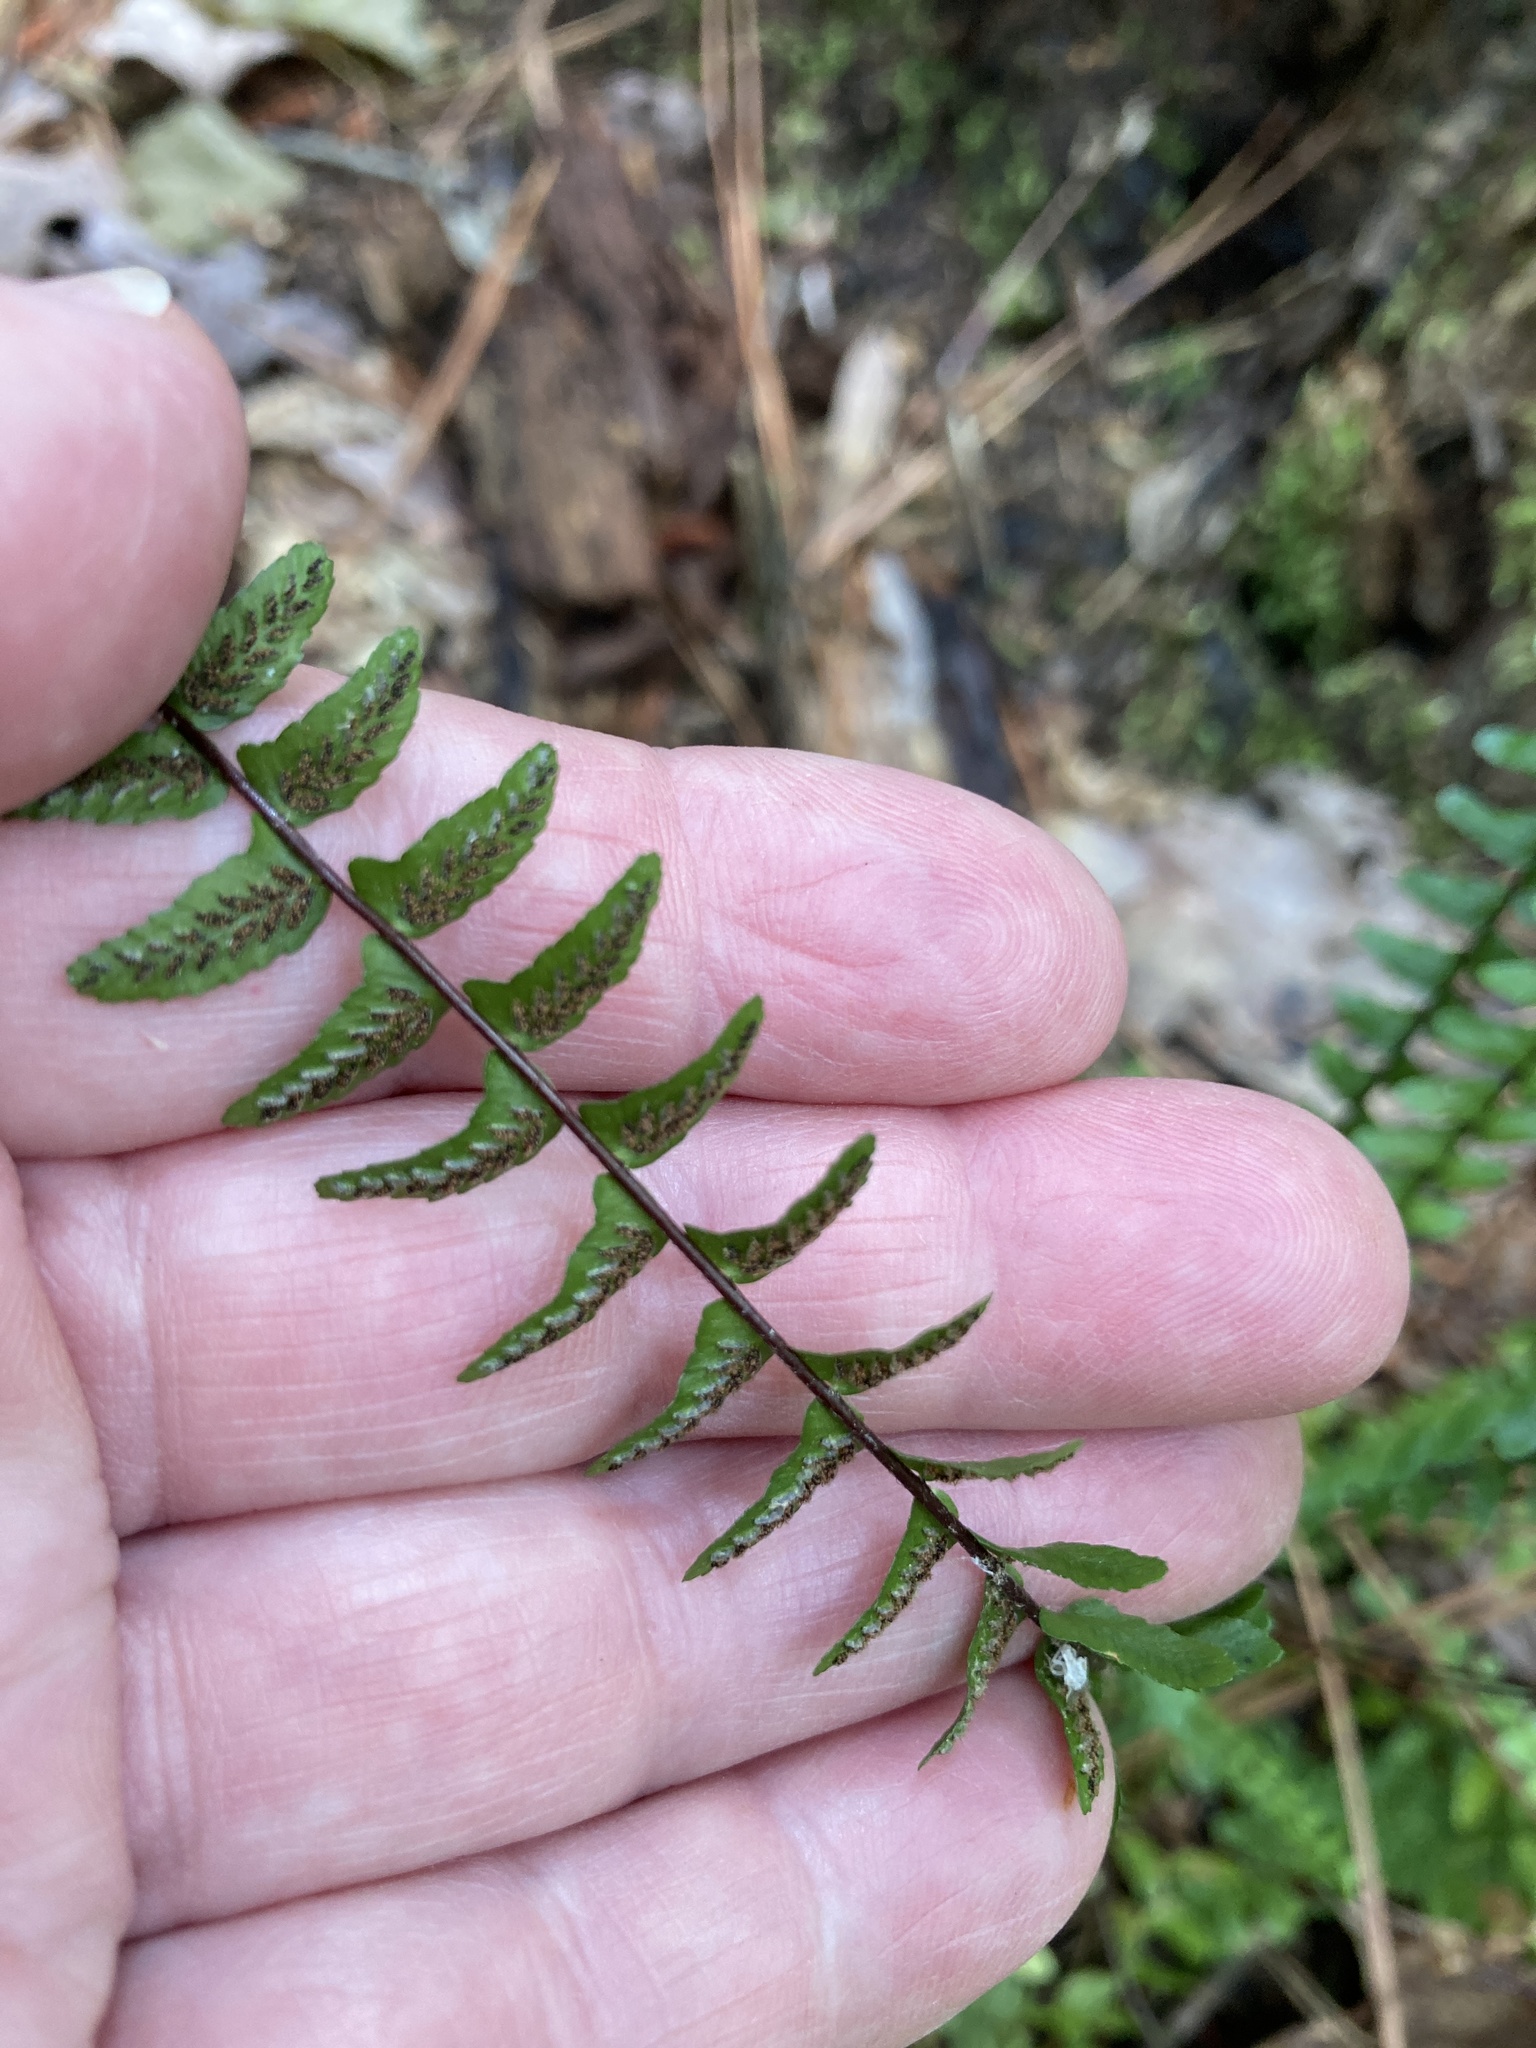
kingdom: Plantae
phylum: Tracheophyta
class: Polypodiopsida
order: Polypodiales
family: Aspleniaceae
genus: Asplenium
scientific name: Asplenium platyneuron
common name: Ebony spleenwort
